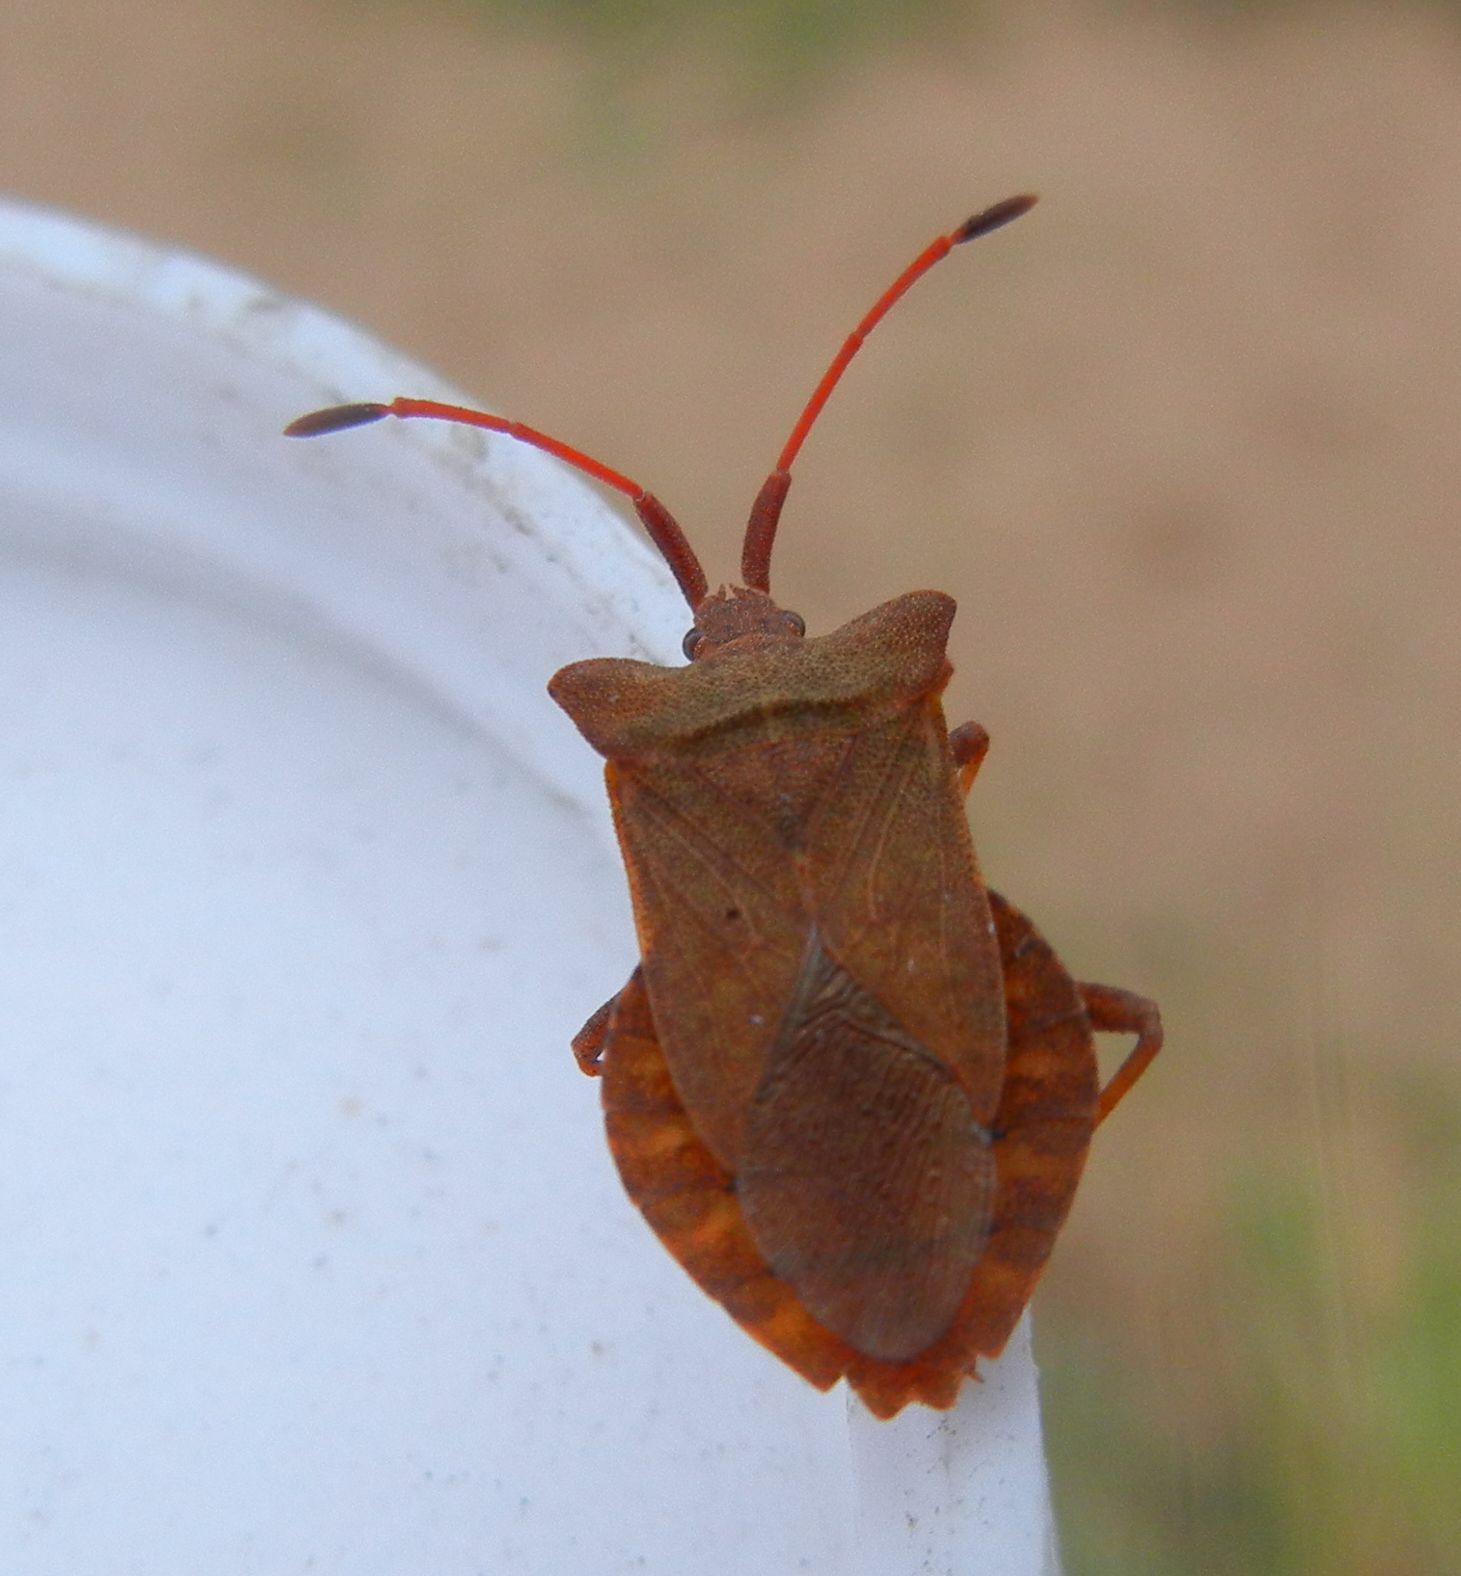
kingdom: Animalia
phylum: Arthropoda
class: Insecta
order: Hemiptera
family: Coreidae
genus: Coreus
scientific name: Coreus marginatus
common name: Dock bug
